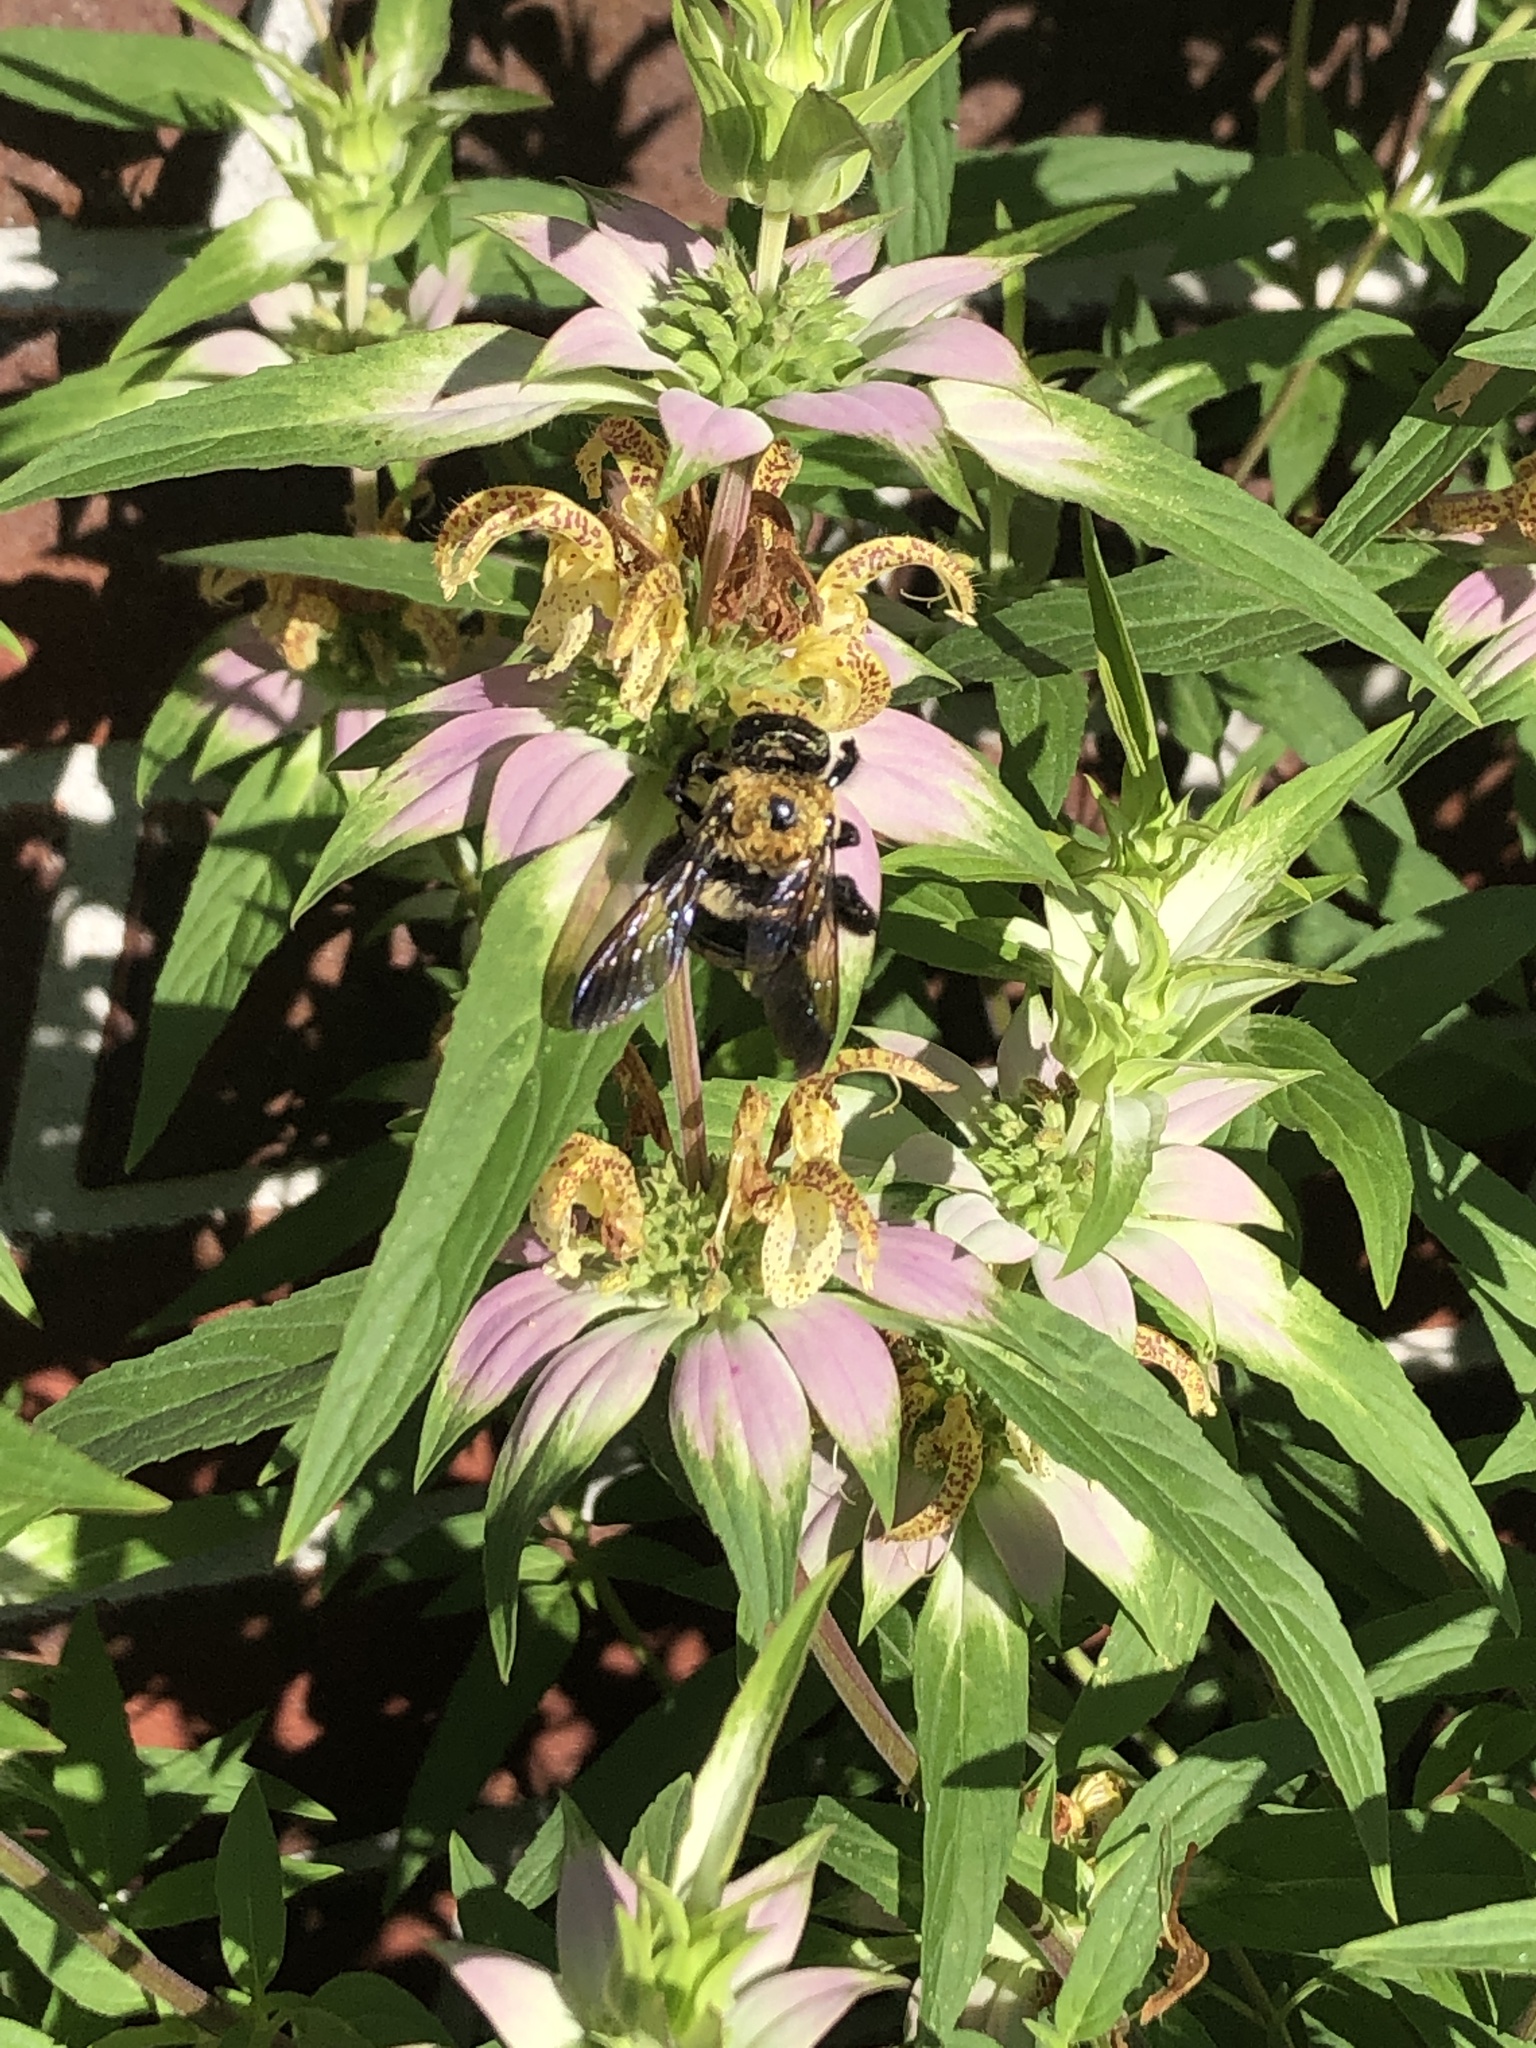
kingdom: Animalia
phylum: Arthropoda
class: Insecta
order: Hymenoptera
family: Apidae
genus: Xylocopa
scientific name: Xylocopa virginica
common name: Carpenter bee
